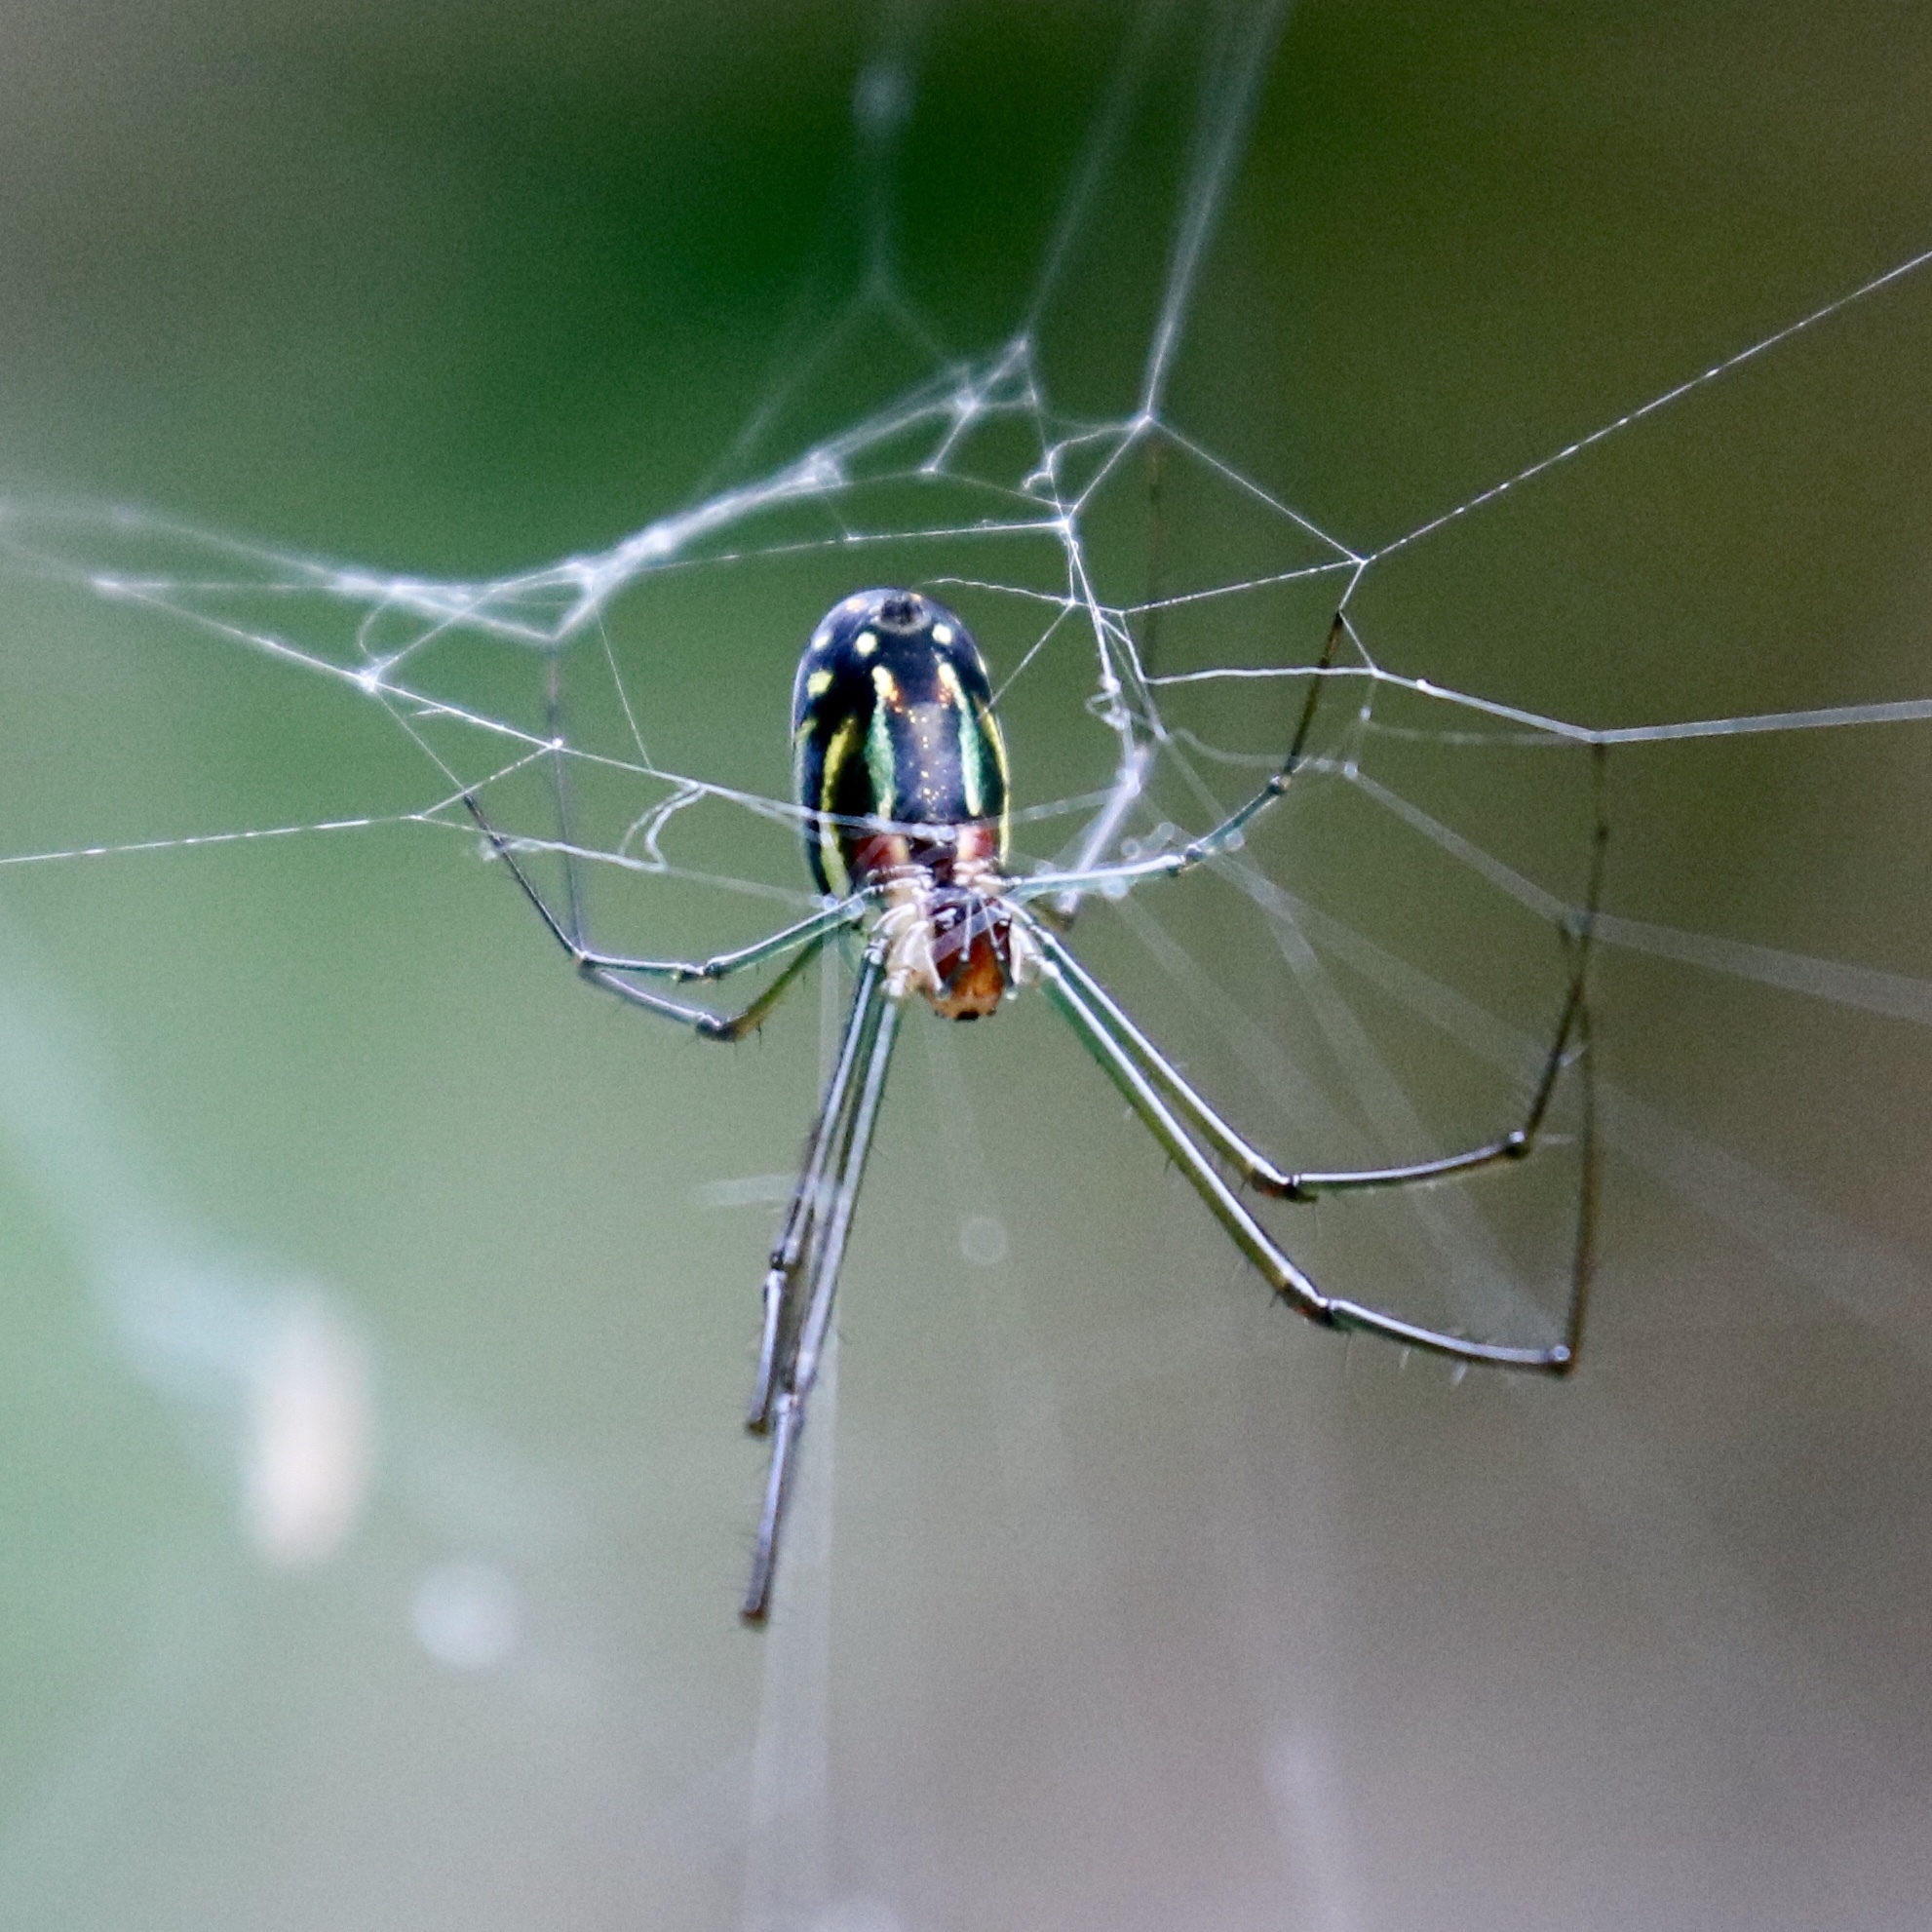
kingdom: Animalia
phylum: Arthropoda
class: Arachnida
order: Araneae
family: Tetragnathidae
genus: Leucauge
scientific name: Leucauge argyra
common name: Longjawed orb weavers
